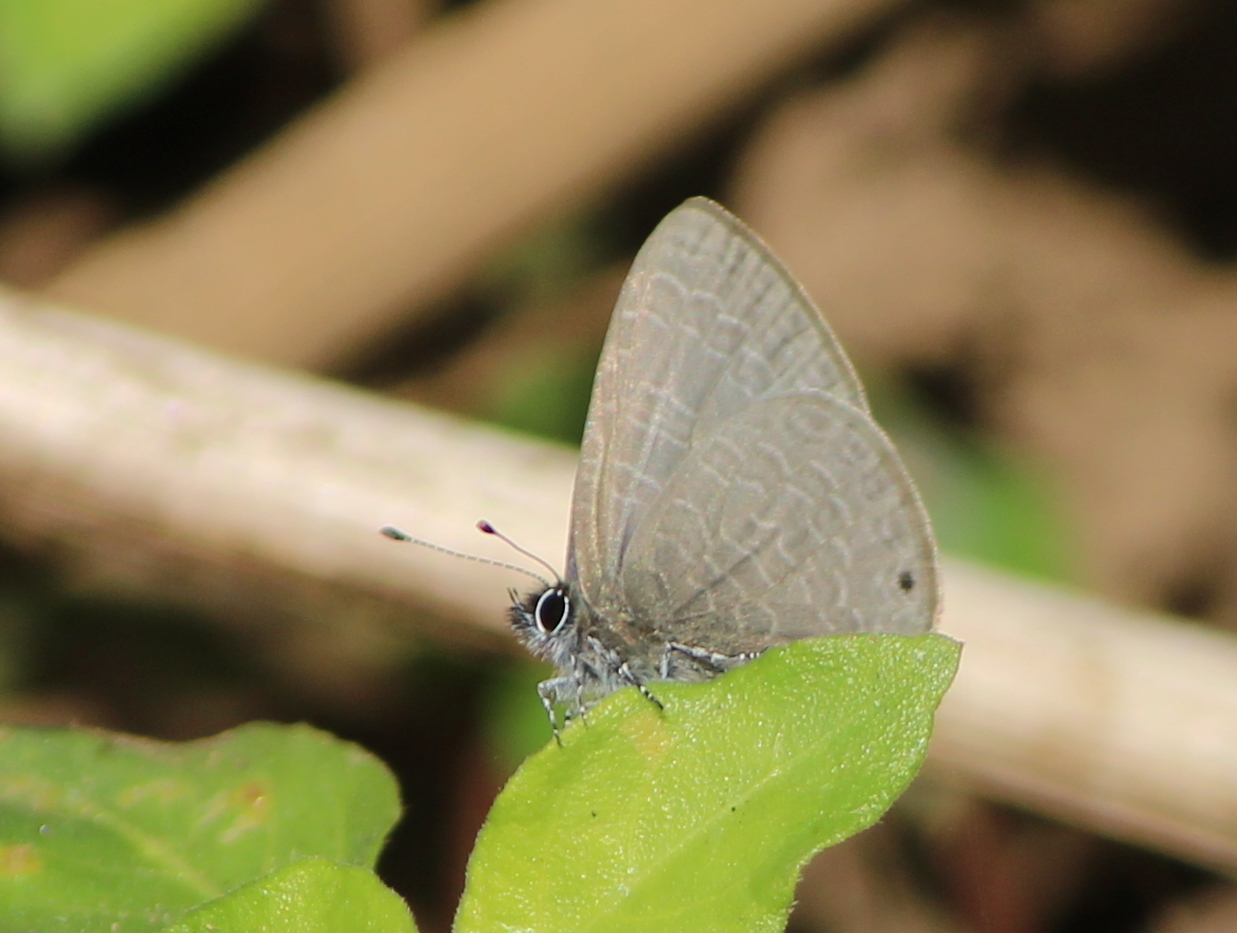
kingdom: Animalia
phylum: Arthropoda
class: Insecta
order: Lepidoptera
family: Lycaenidae
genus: Petrelaea
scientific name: Petrelaea dana
